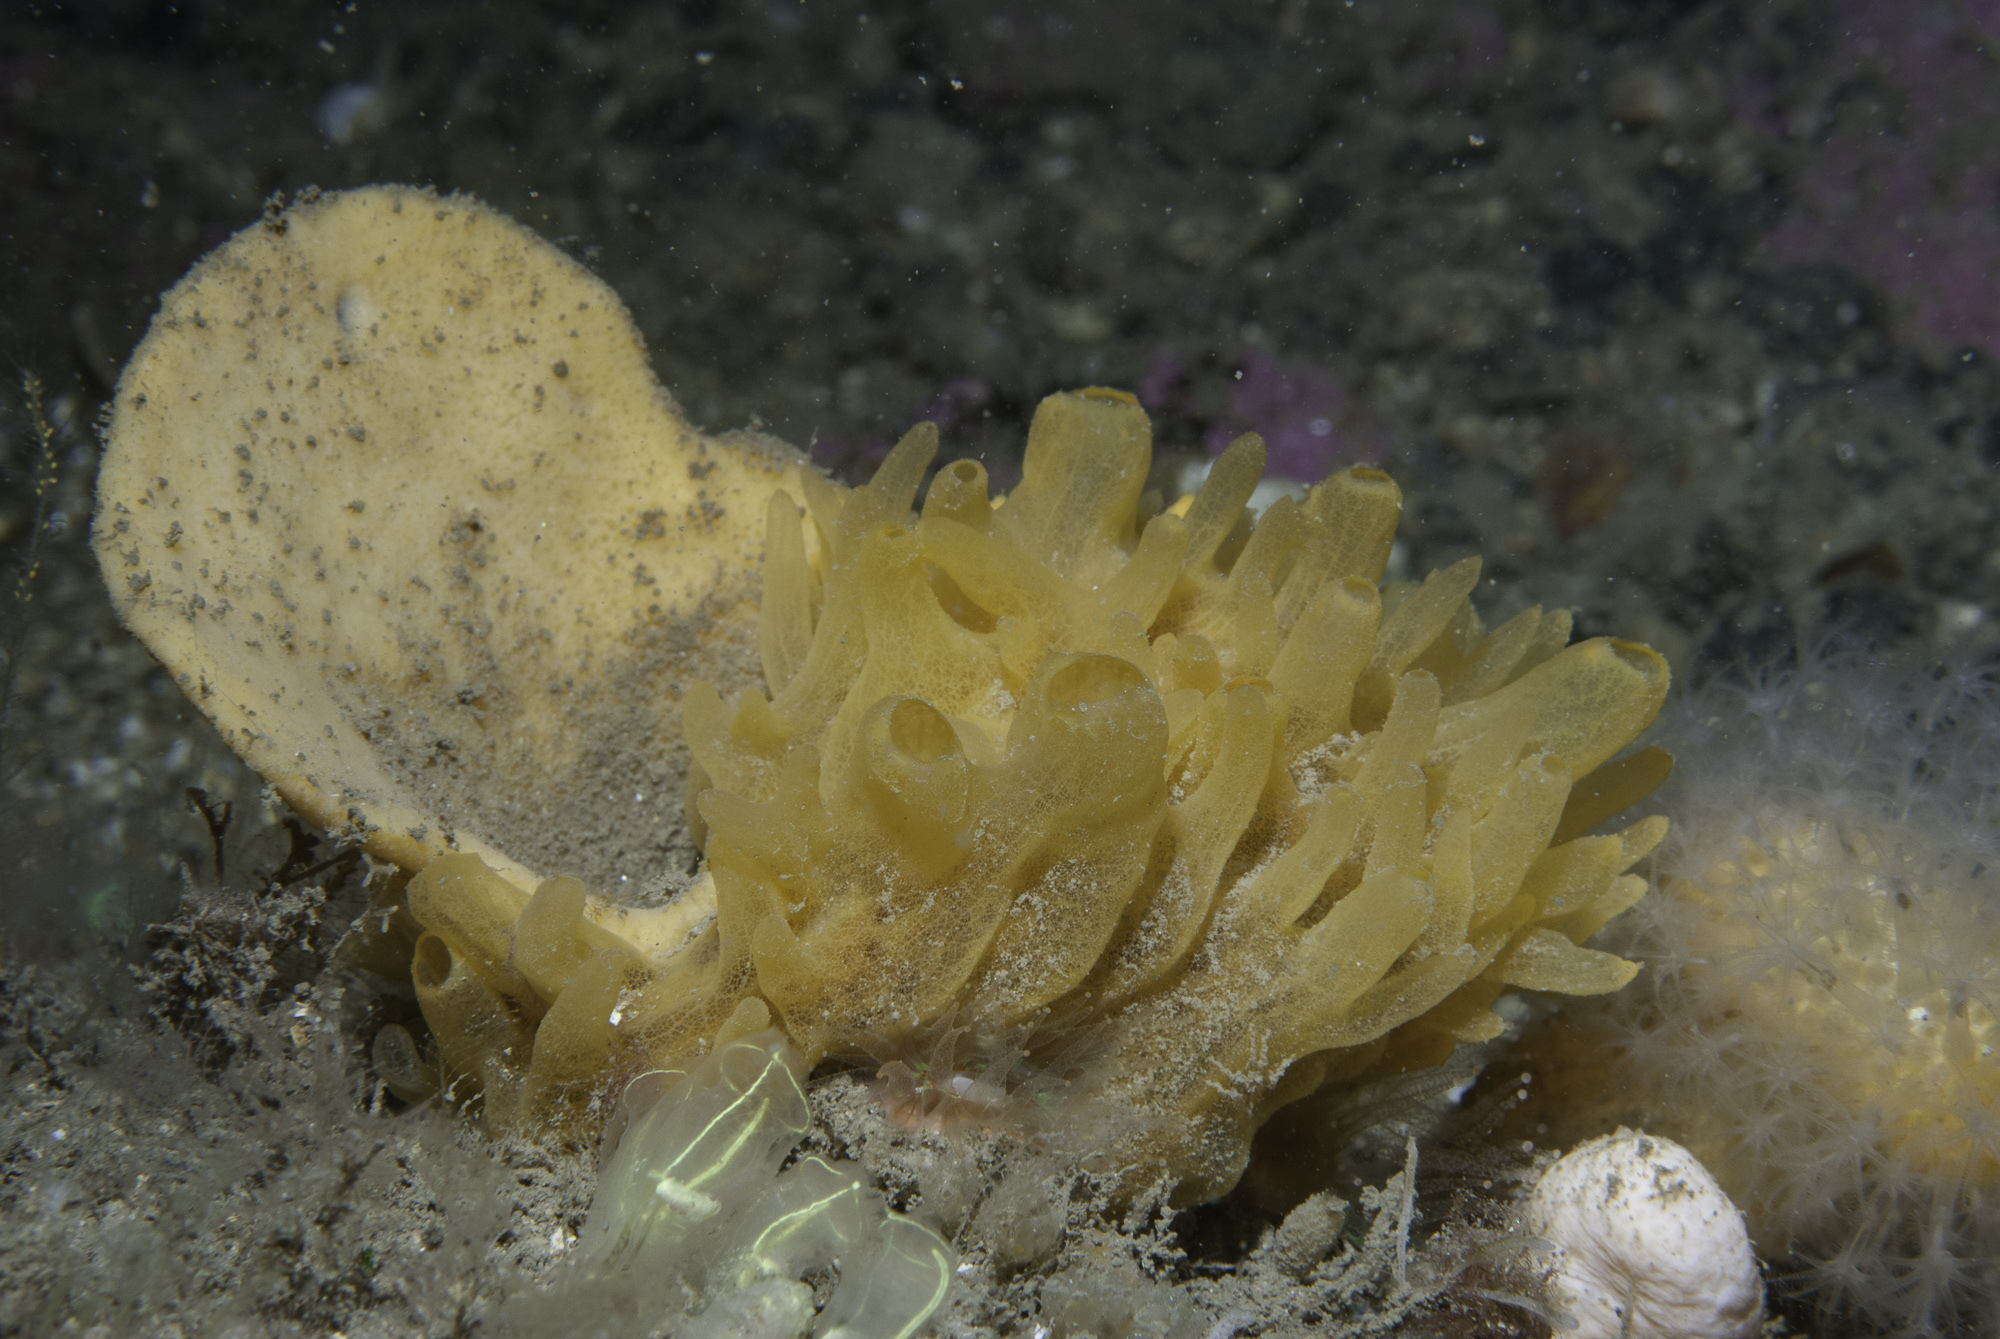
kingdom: Animalia
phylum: Porifera
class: Demospongiae
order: Axinellida
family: Axinellidae
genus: Axinella
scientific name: Axinella infundibuliformis
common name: North atlantic cup sponge
